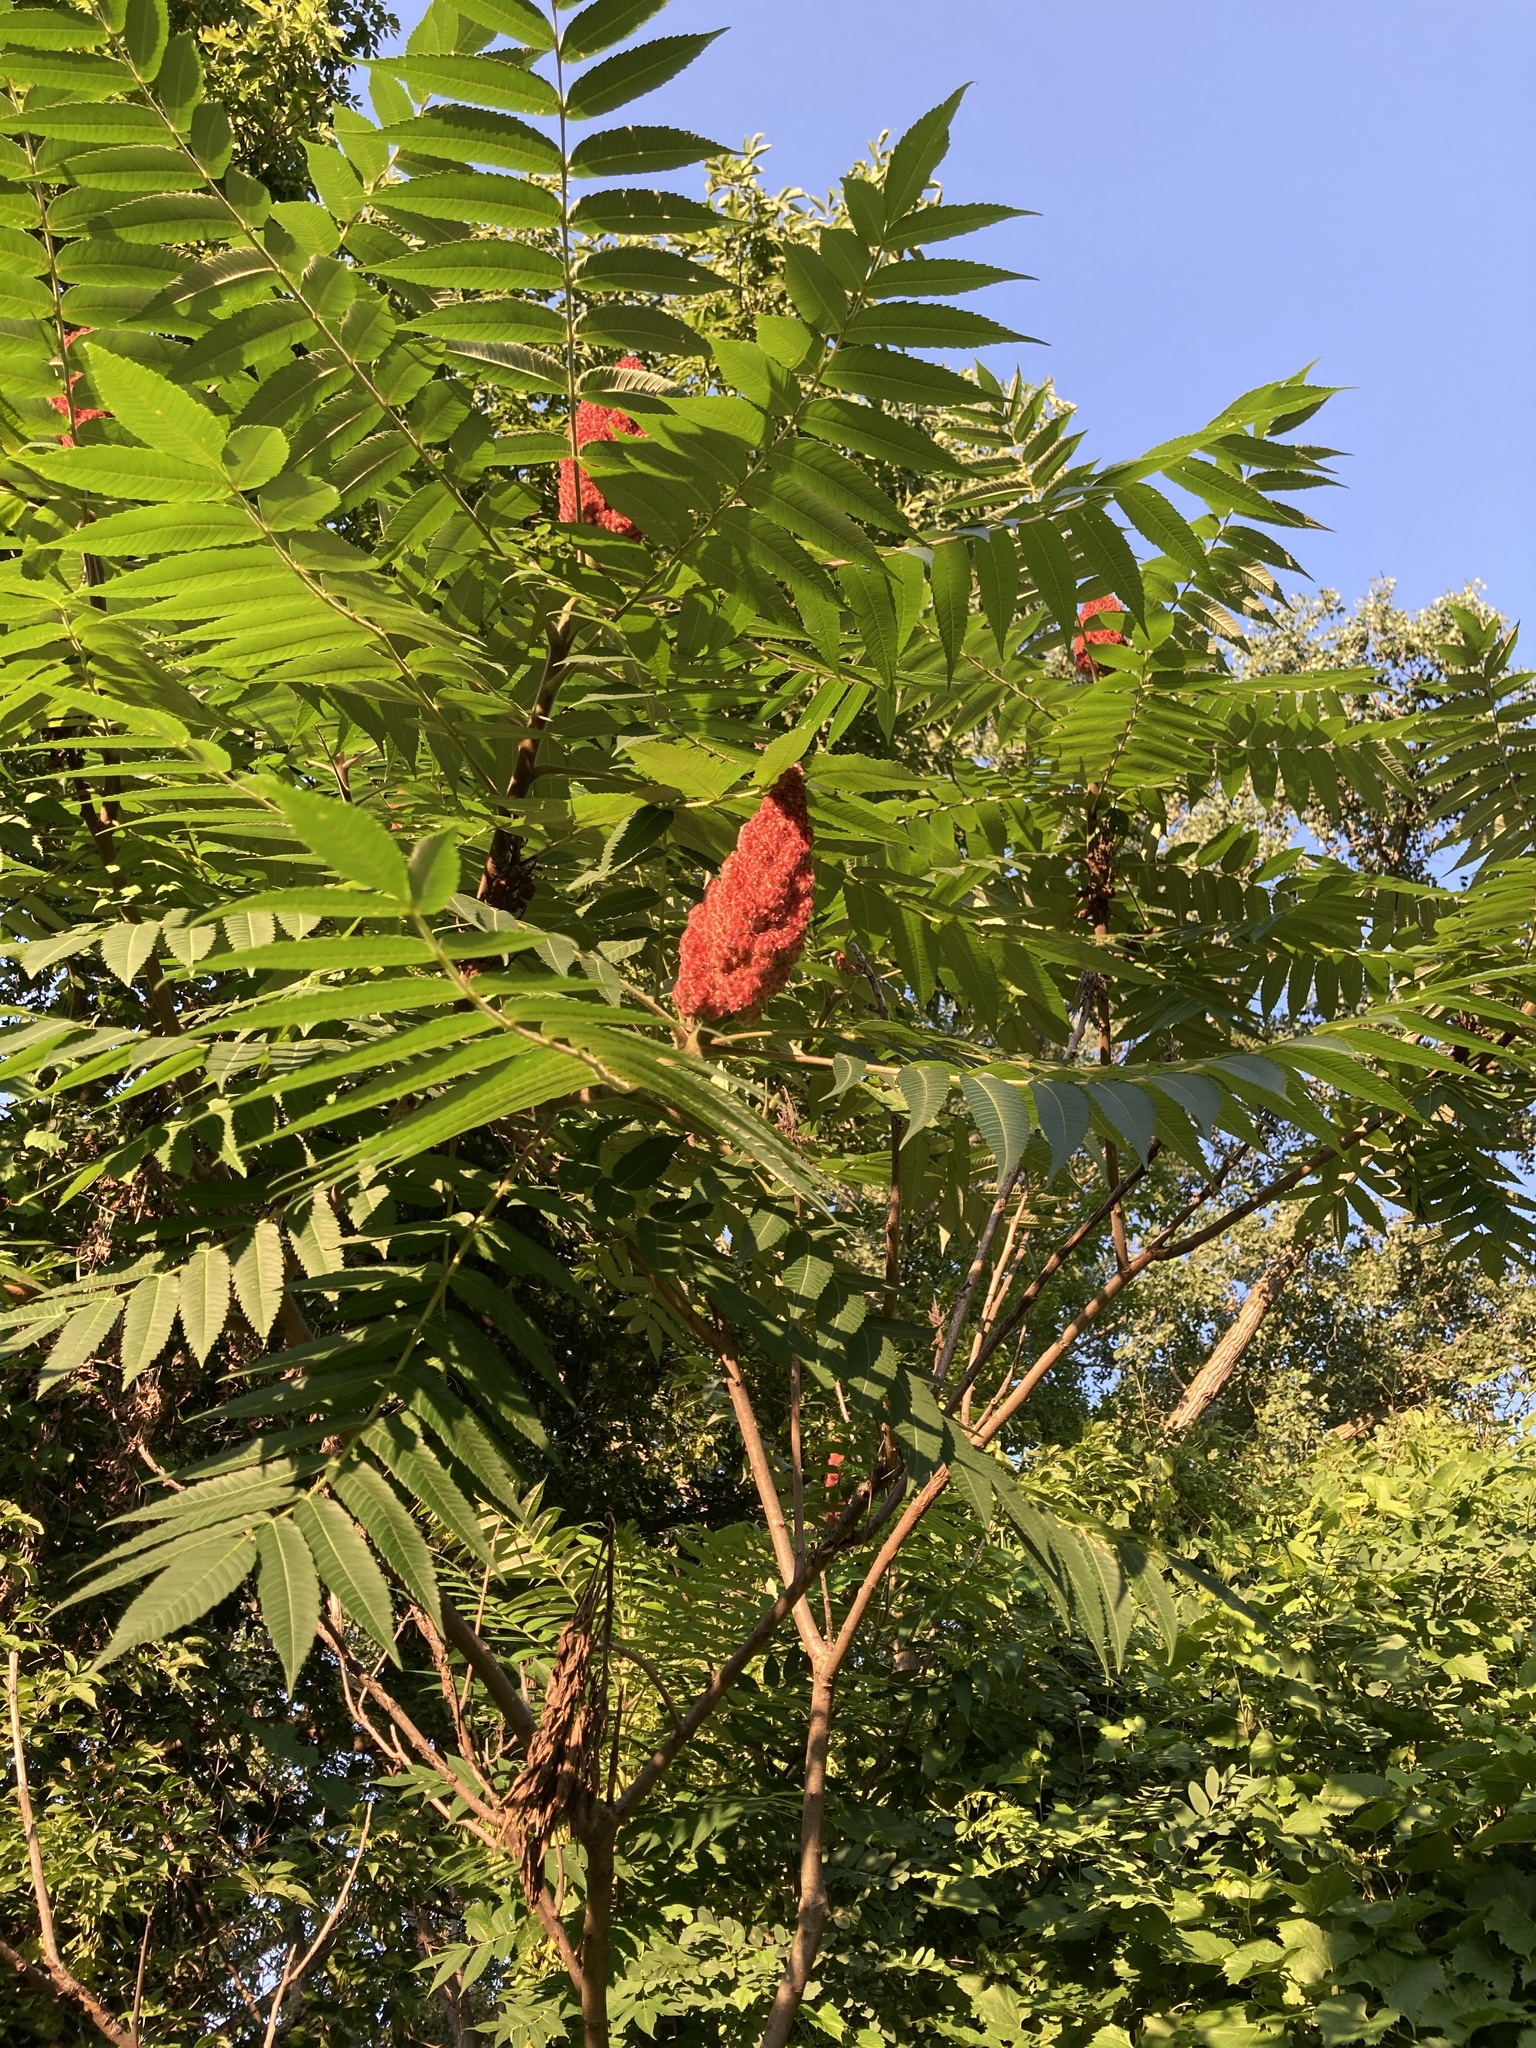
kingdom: Plantae
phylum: Tracheophyta
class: Magnoliopsida
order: Sapindales
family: Anacardiaceae
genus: Rhus
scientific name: Rhus typhina
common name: Staghorn sumac
